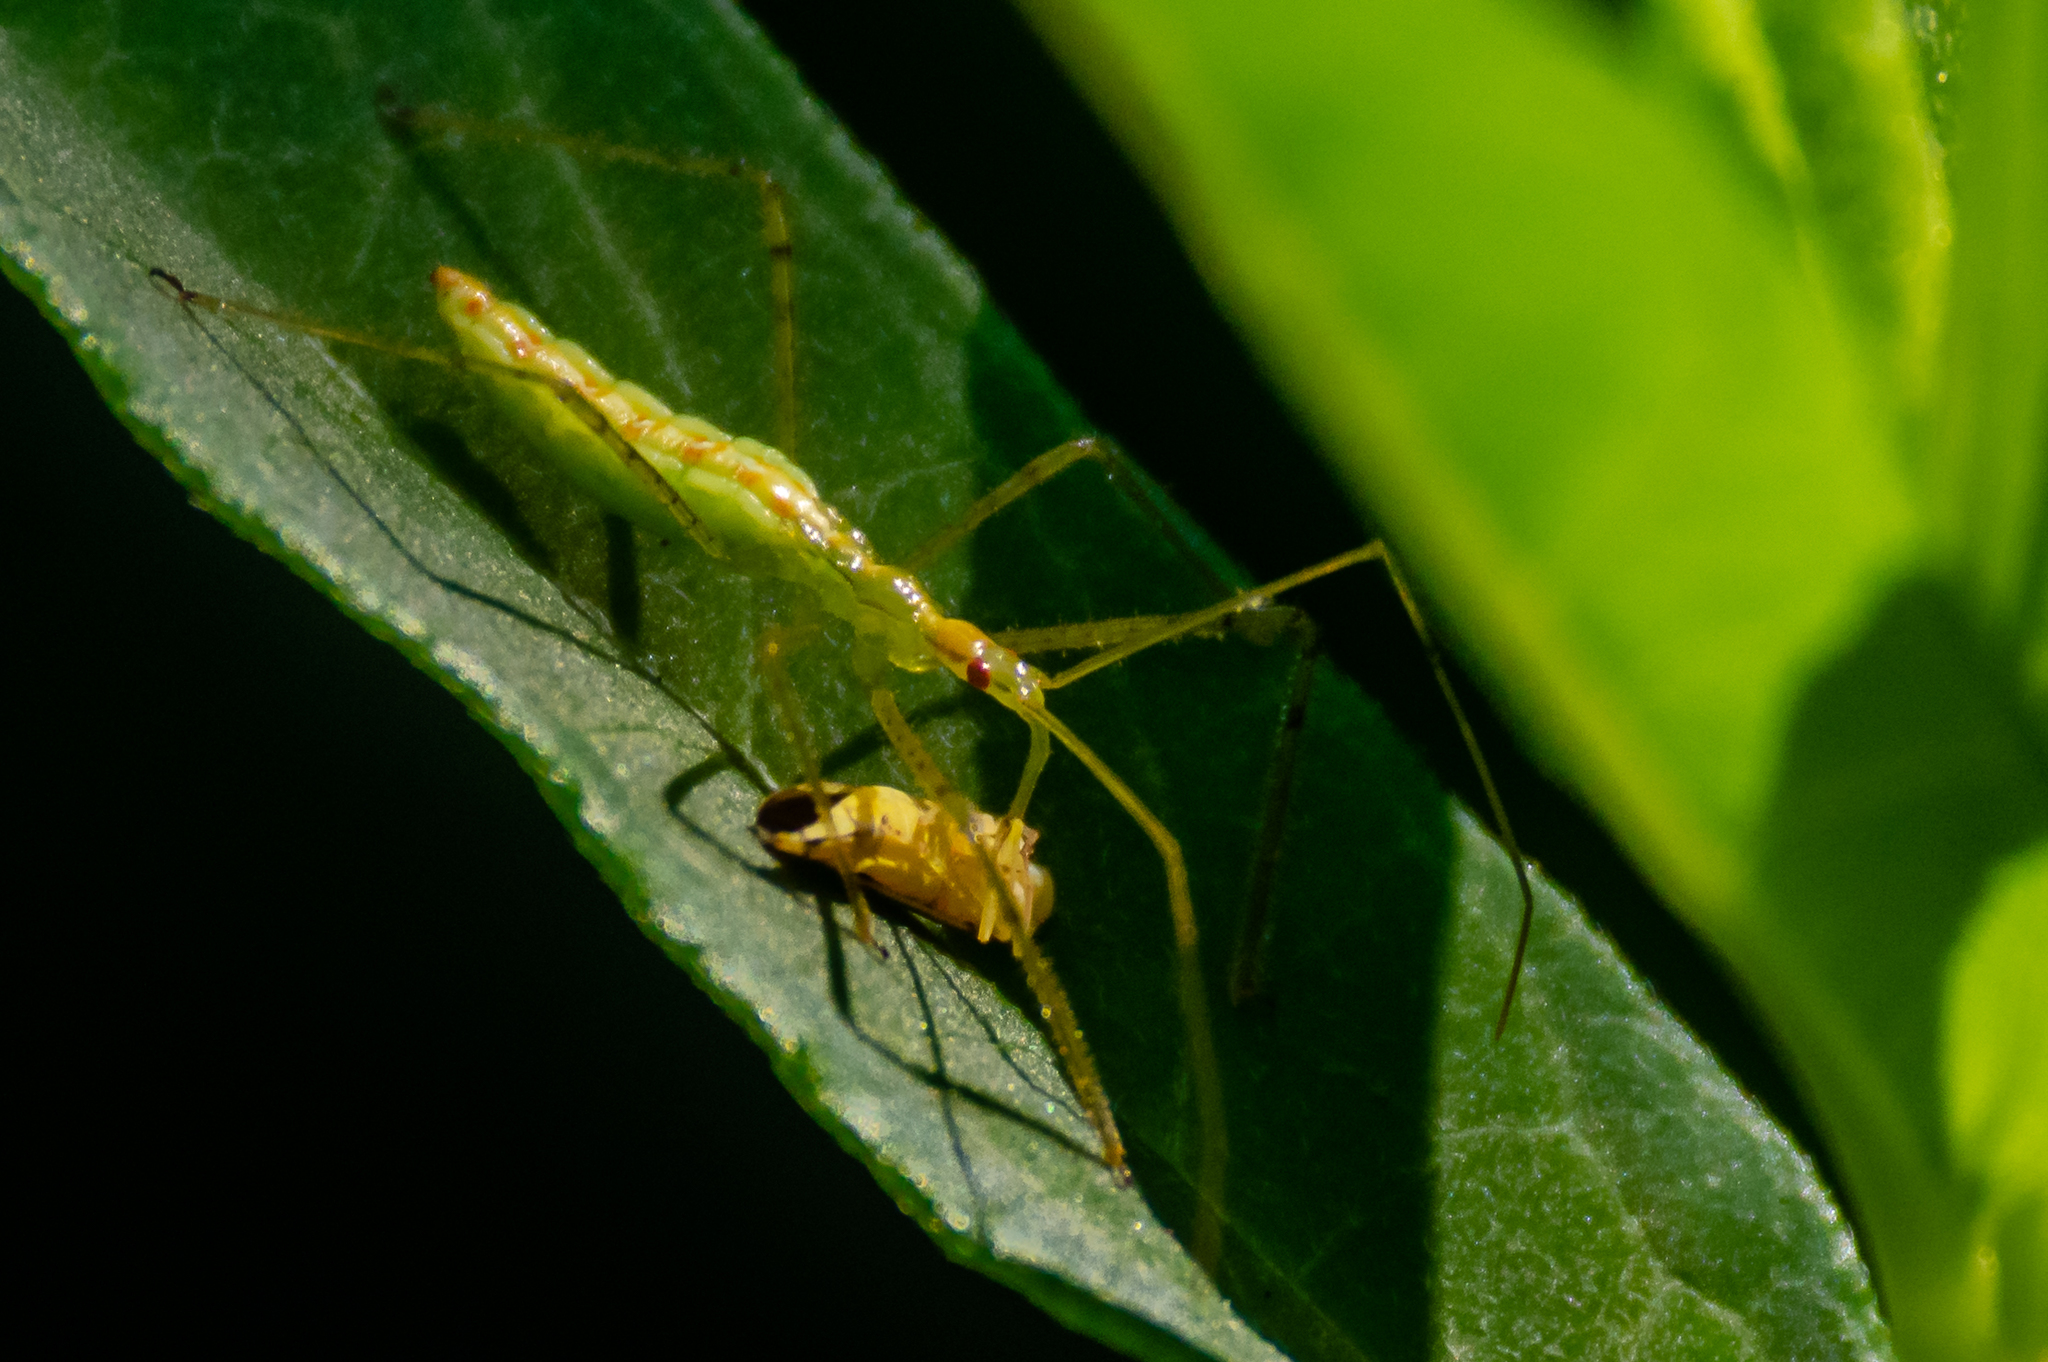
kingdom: Animalia
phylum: Arthropoda
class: Insecta
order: Hemiptera
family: Reduviidae
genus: Zelus
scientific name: Zelus luridus
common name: Pale green assassin bug
